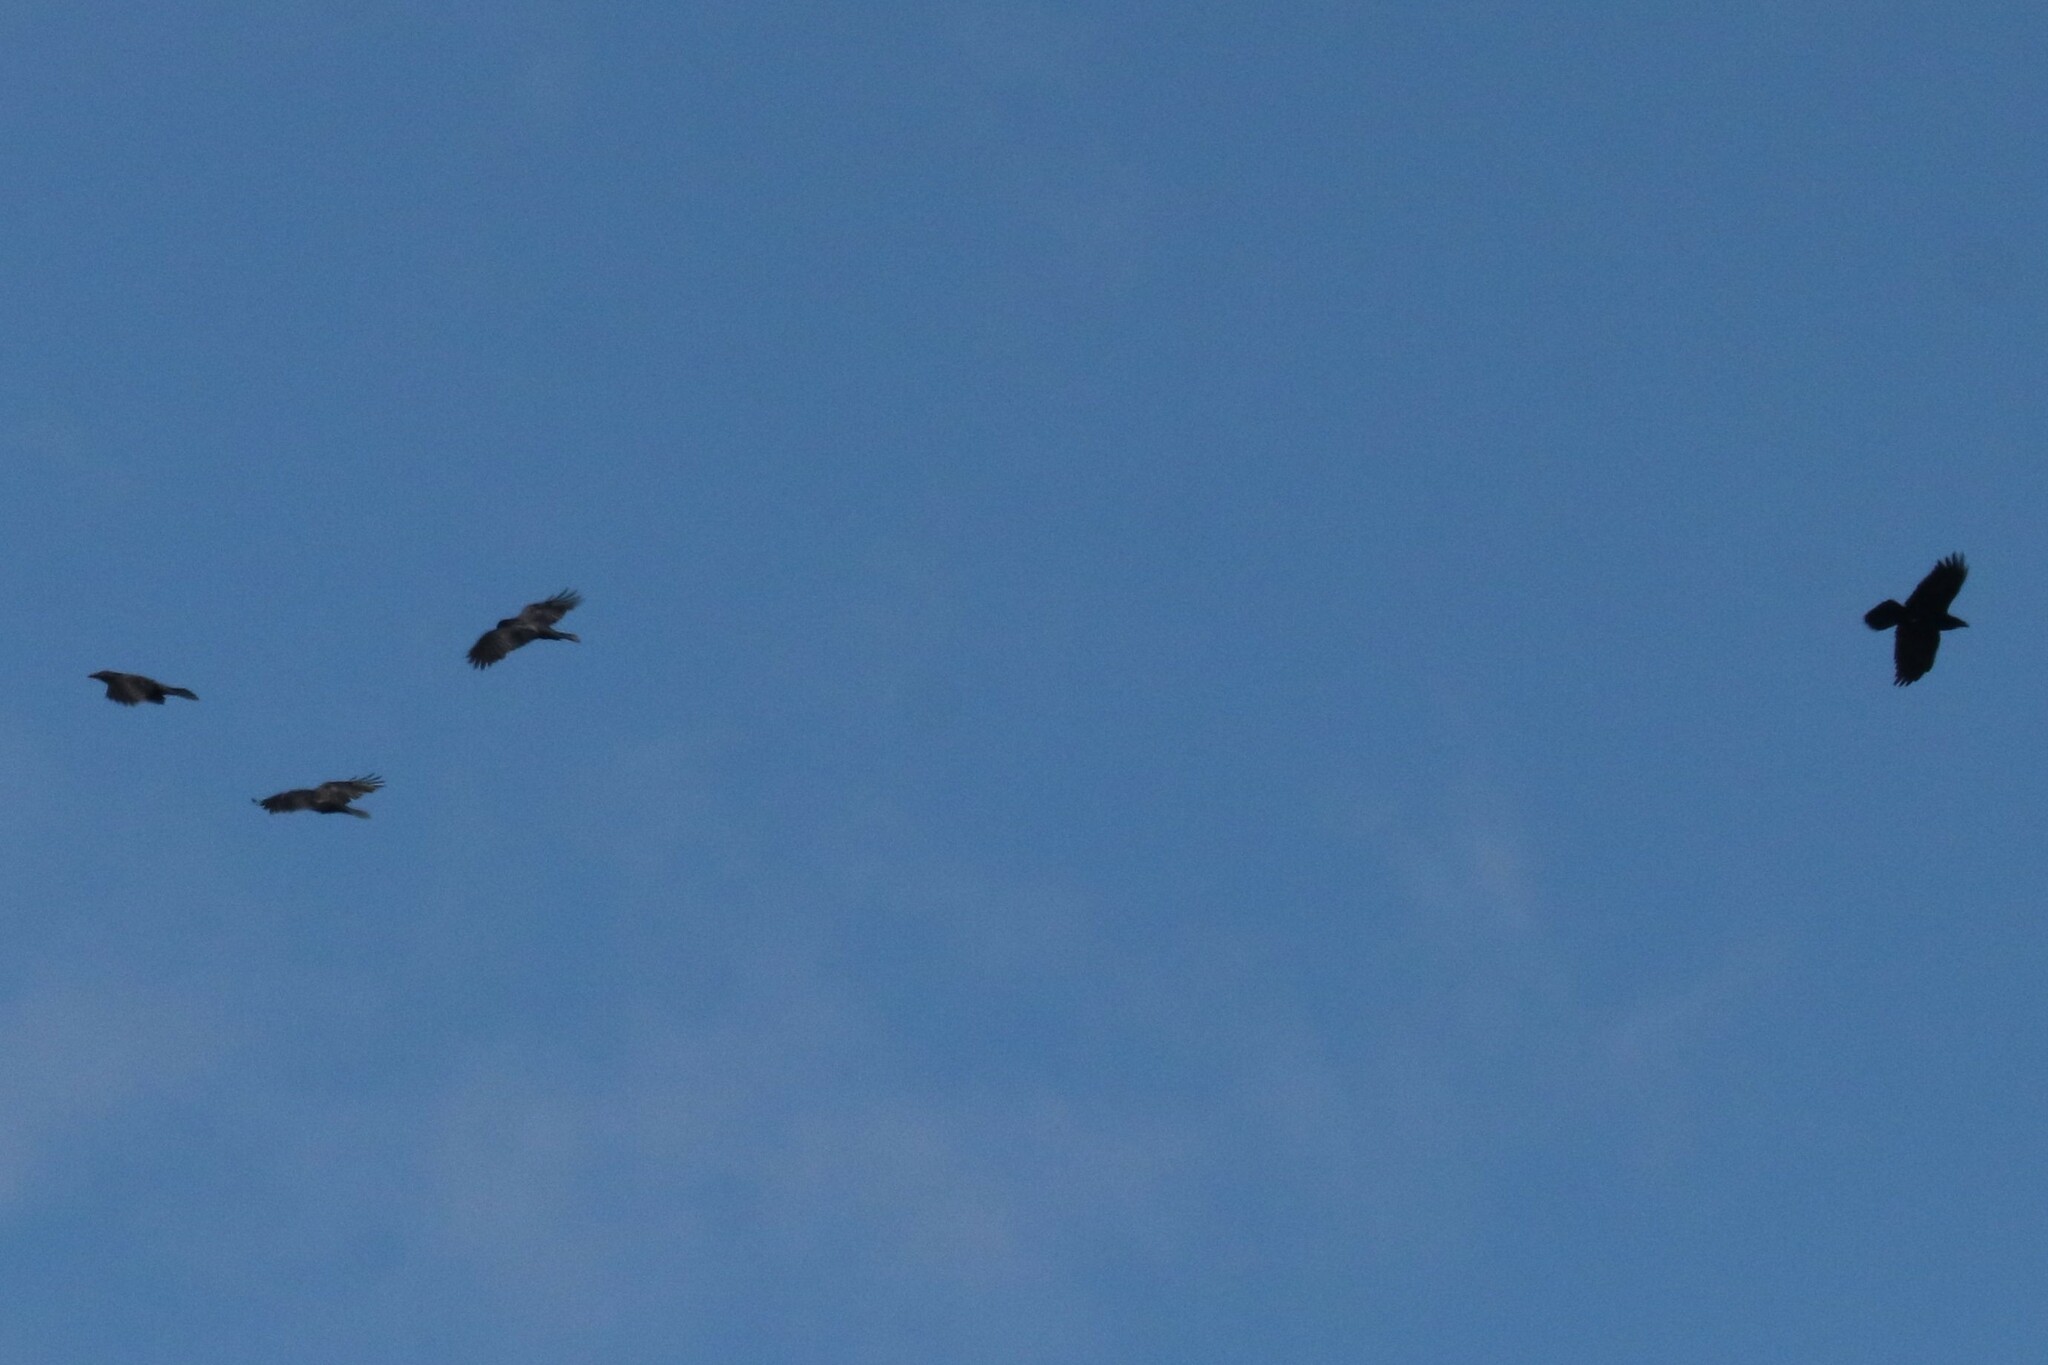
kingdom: Animalia
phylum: Chordata
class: Aves
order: Passeriformes
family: Corvidae
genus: Corvus
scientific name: Corvus corax
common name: Common raven
